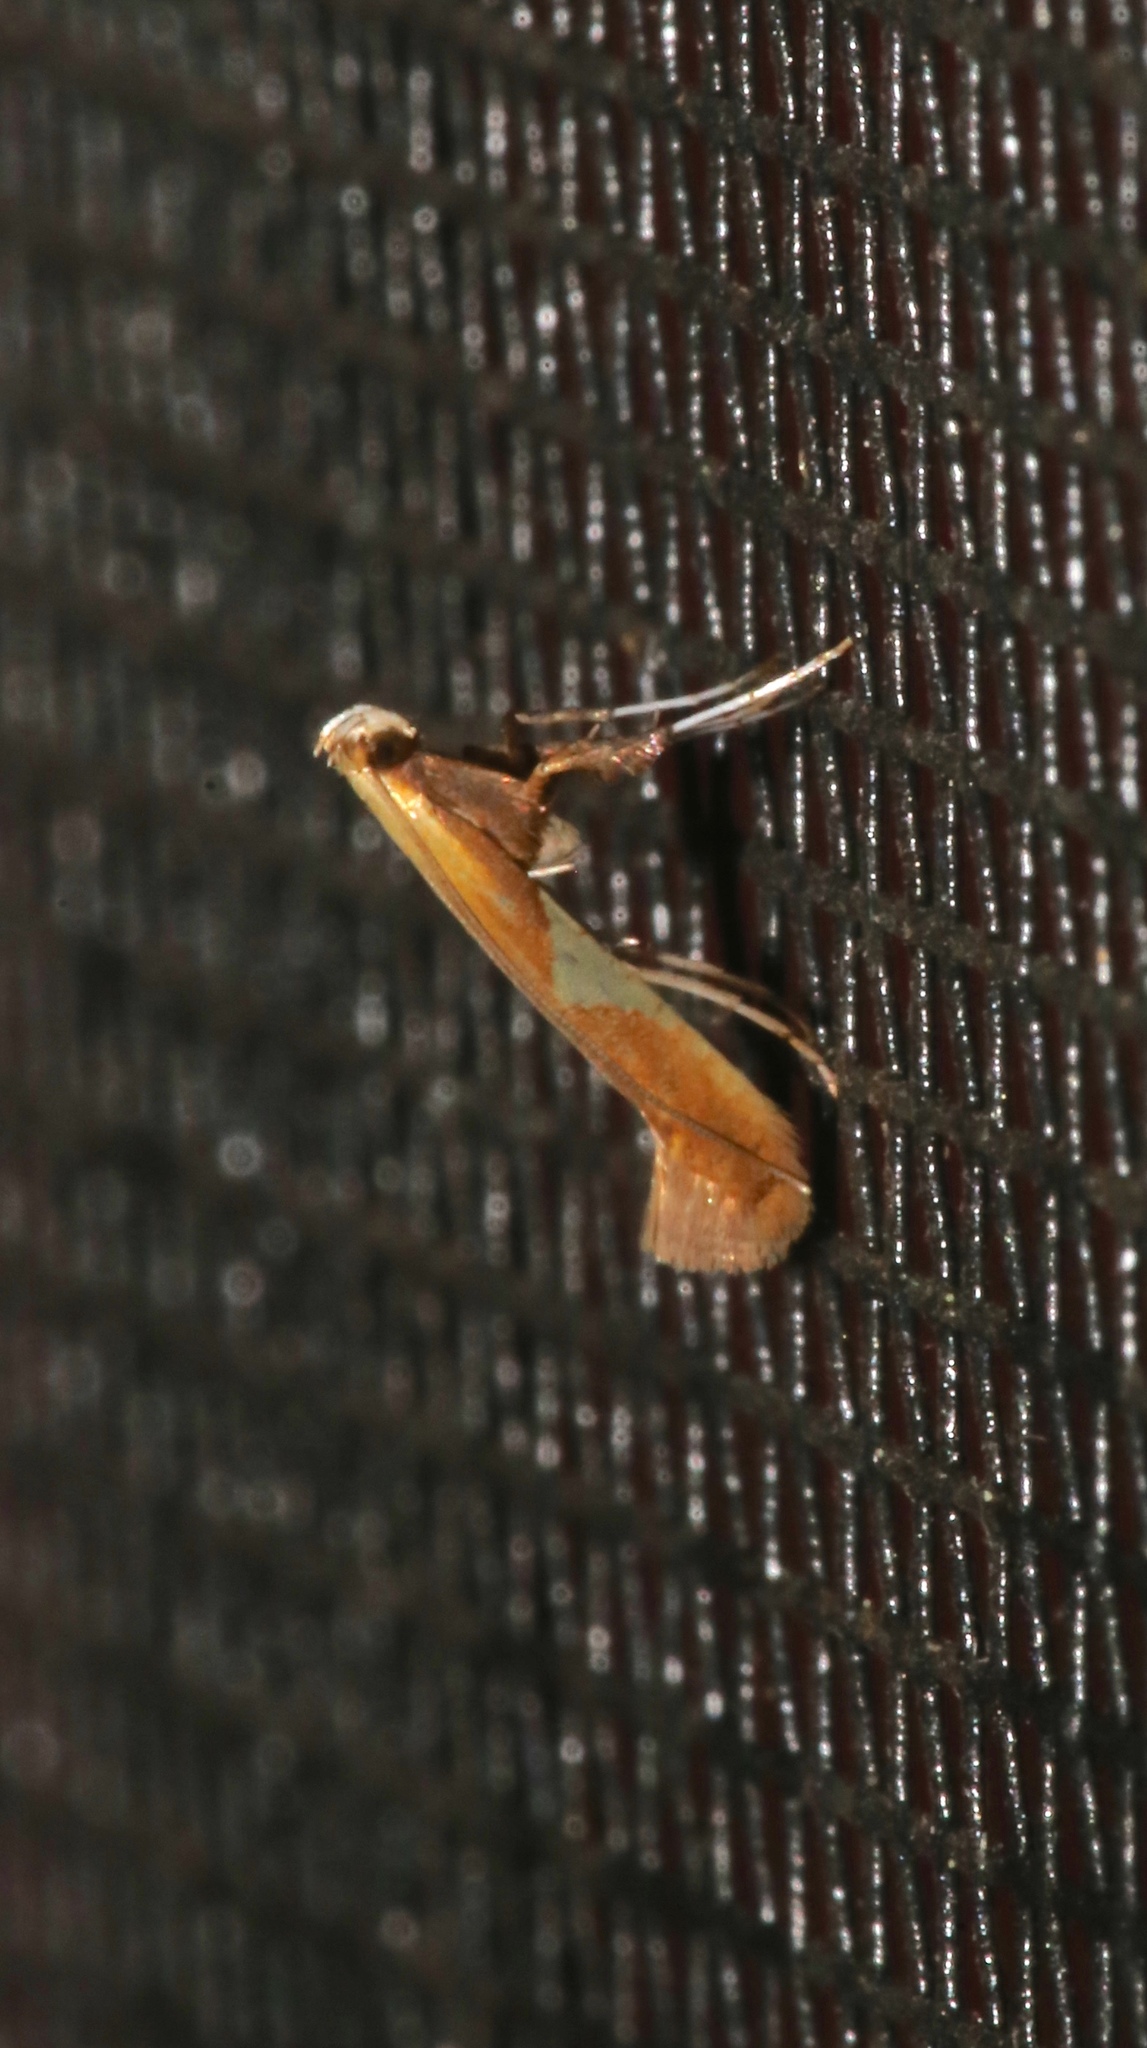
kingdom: Animalia
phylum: Arthropoda
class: Insecta
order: Lepidoptera
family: Gracillariidae
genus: Caloptilia
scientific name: Caloptilia packardella
